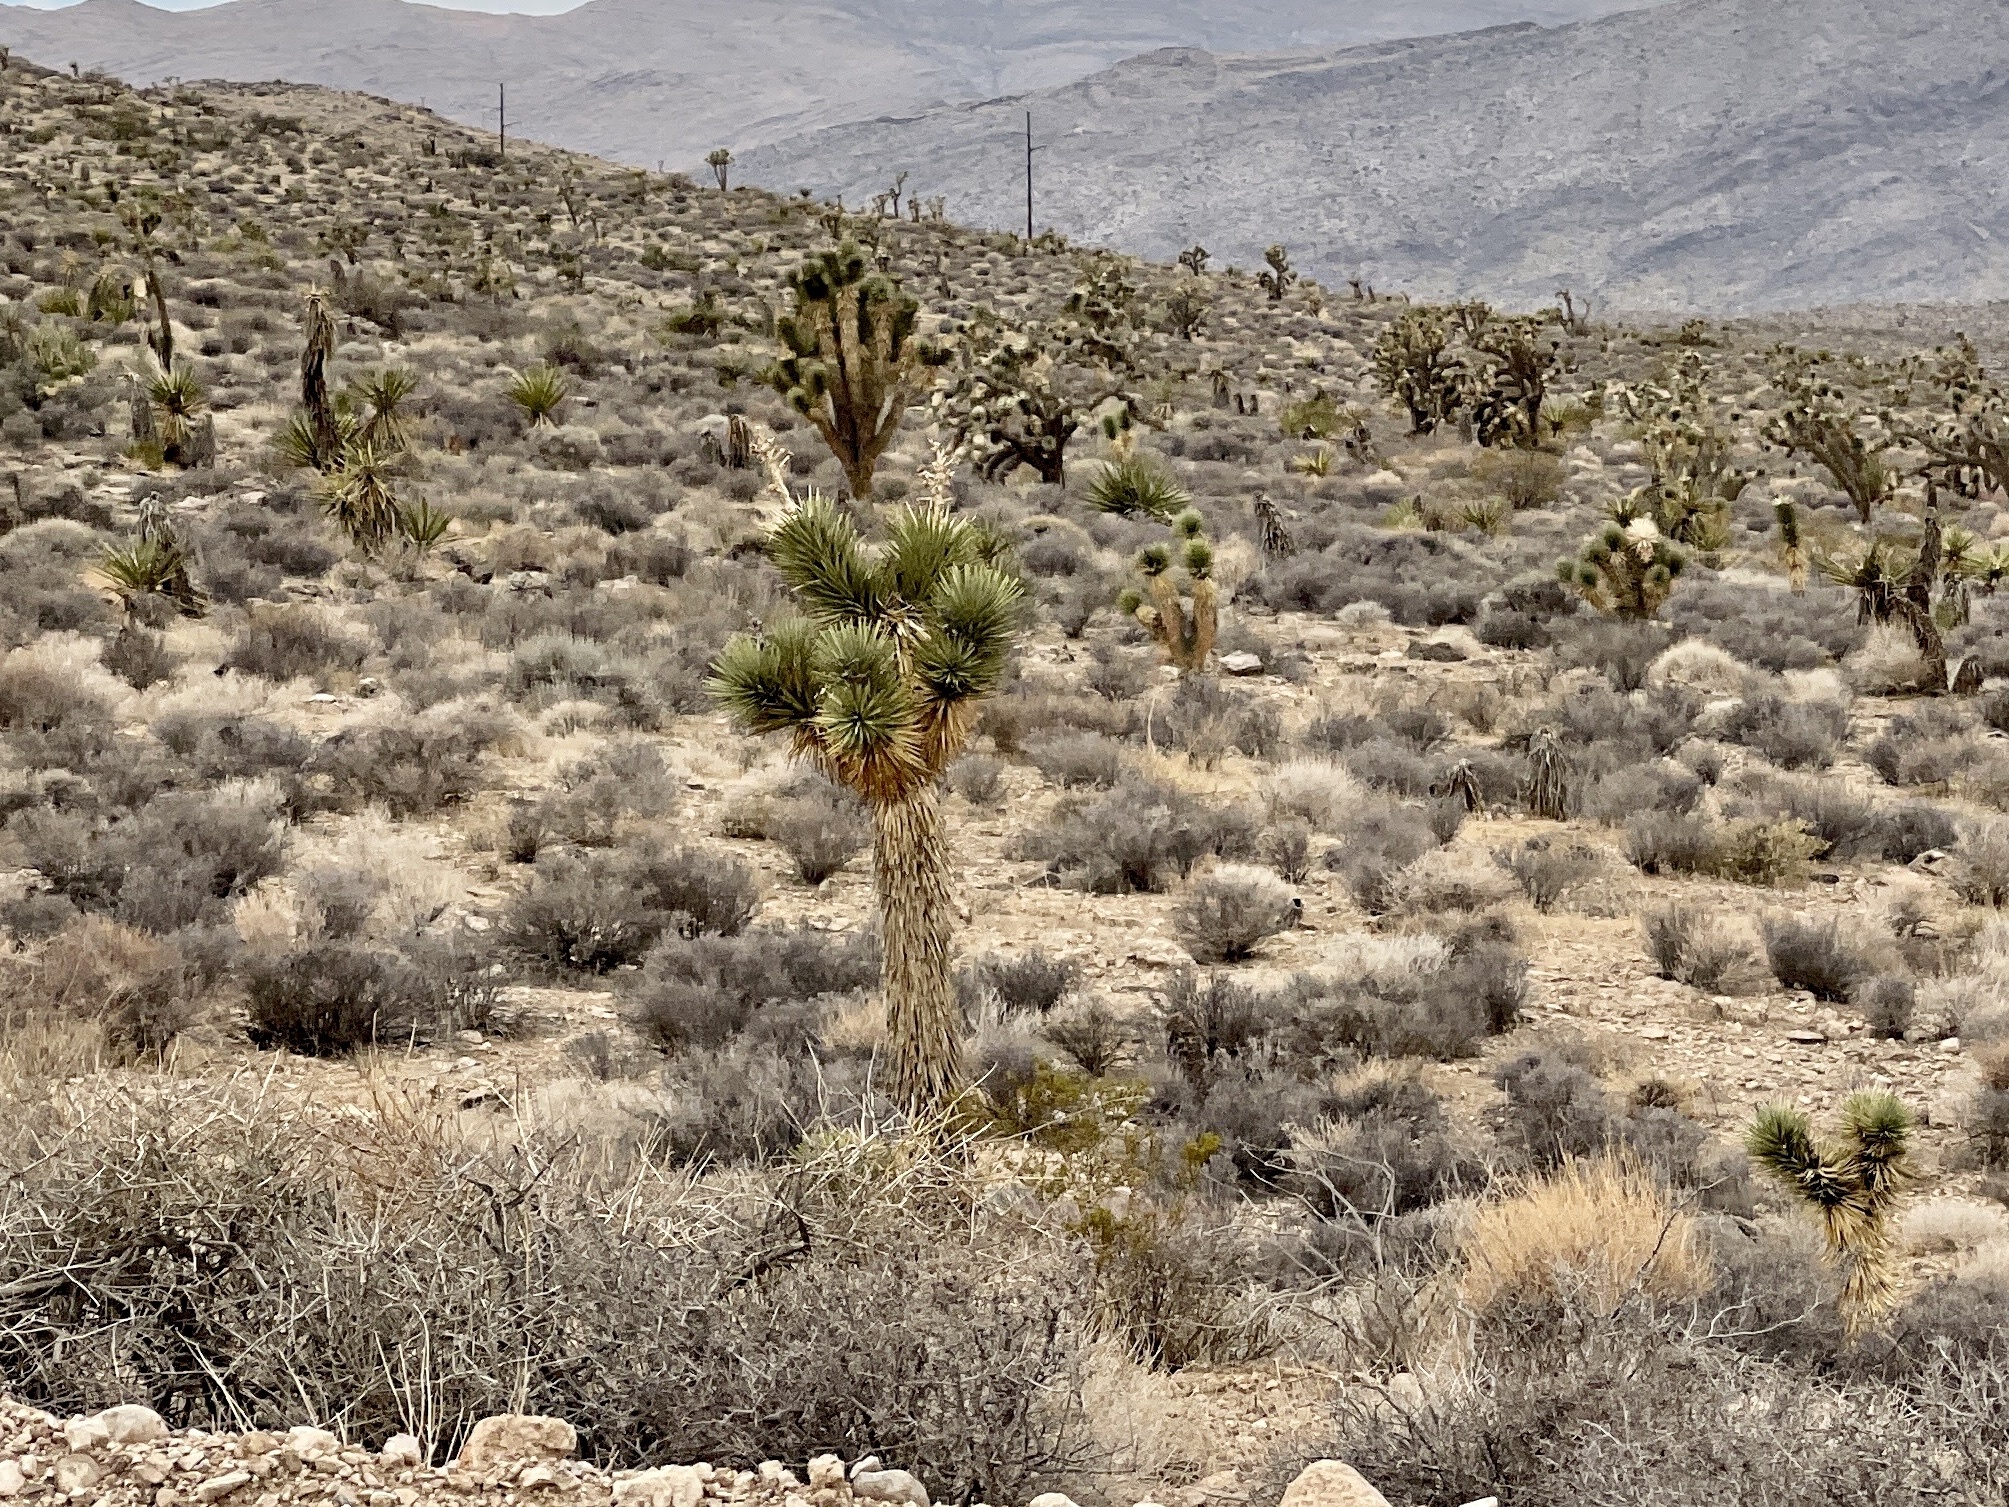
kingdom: Plantae
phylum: Tracheophyta
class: Liliopsida
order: Asparagales
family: Asparagaceae
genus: Yucca
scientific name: Yucca brevifolia
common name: Joshua tree
